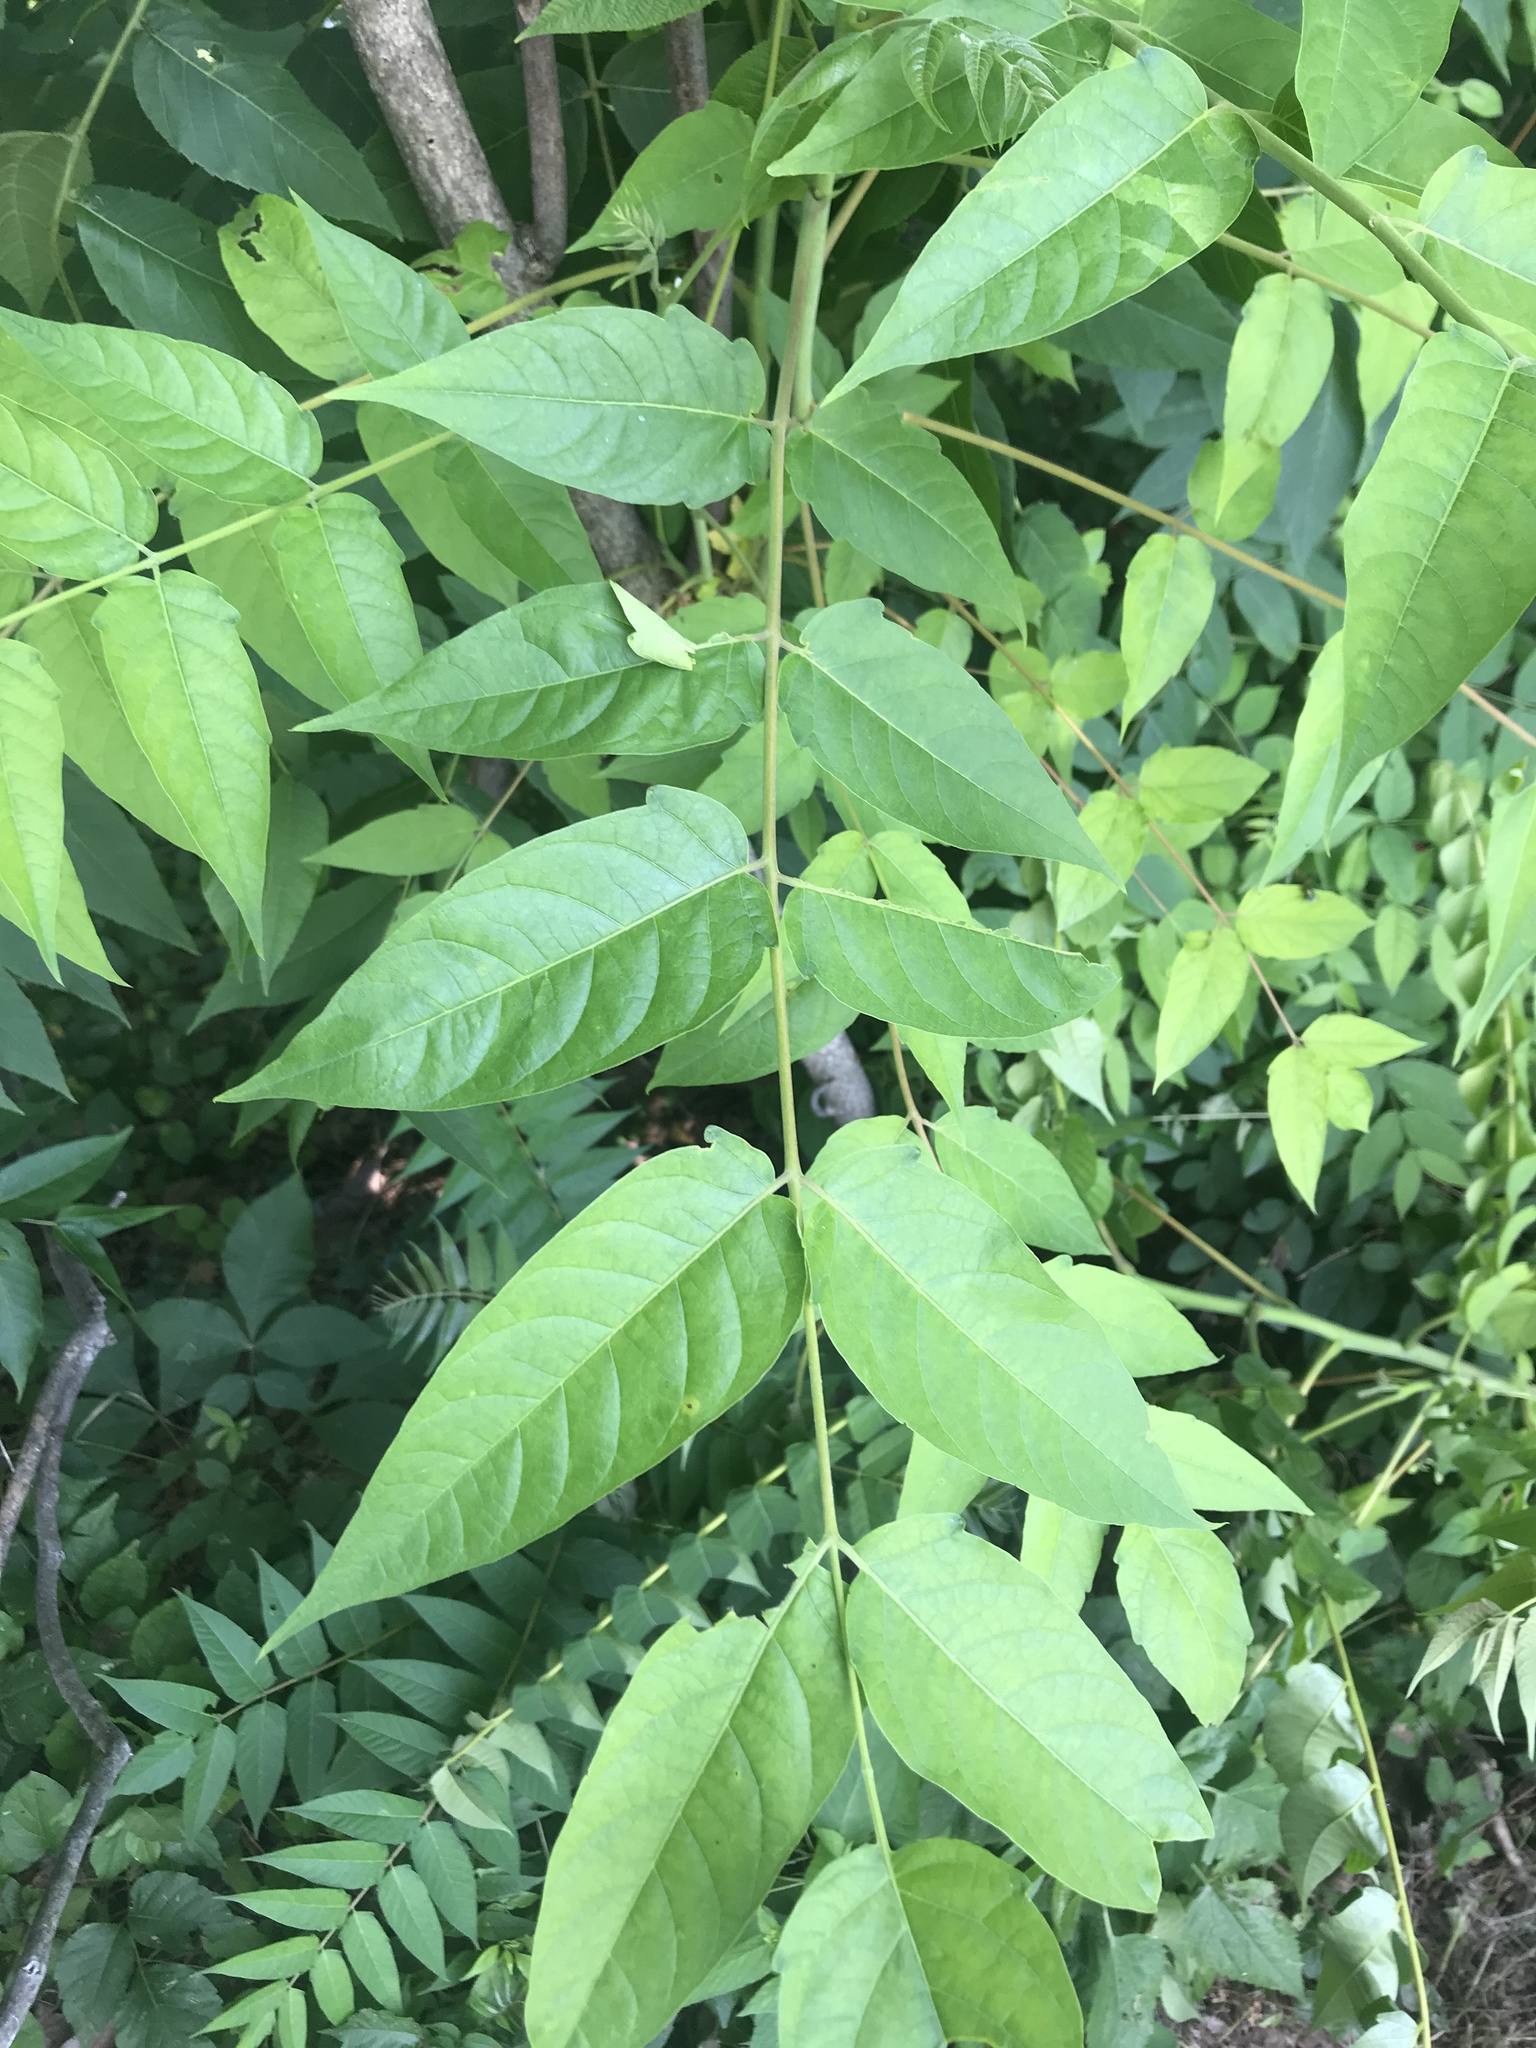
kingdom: Plantae
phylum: Tracheophyta
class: Magnoliopsida
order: Sapindales
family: Simaroubaceae
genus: Ailanthus
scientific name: Ailanthus altissima
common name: Tree-of-heaven
